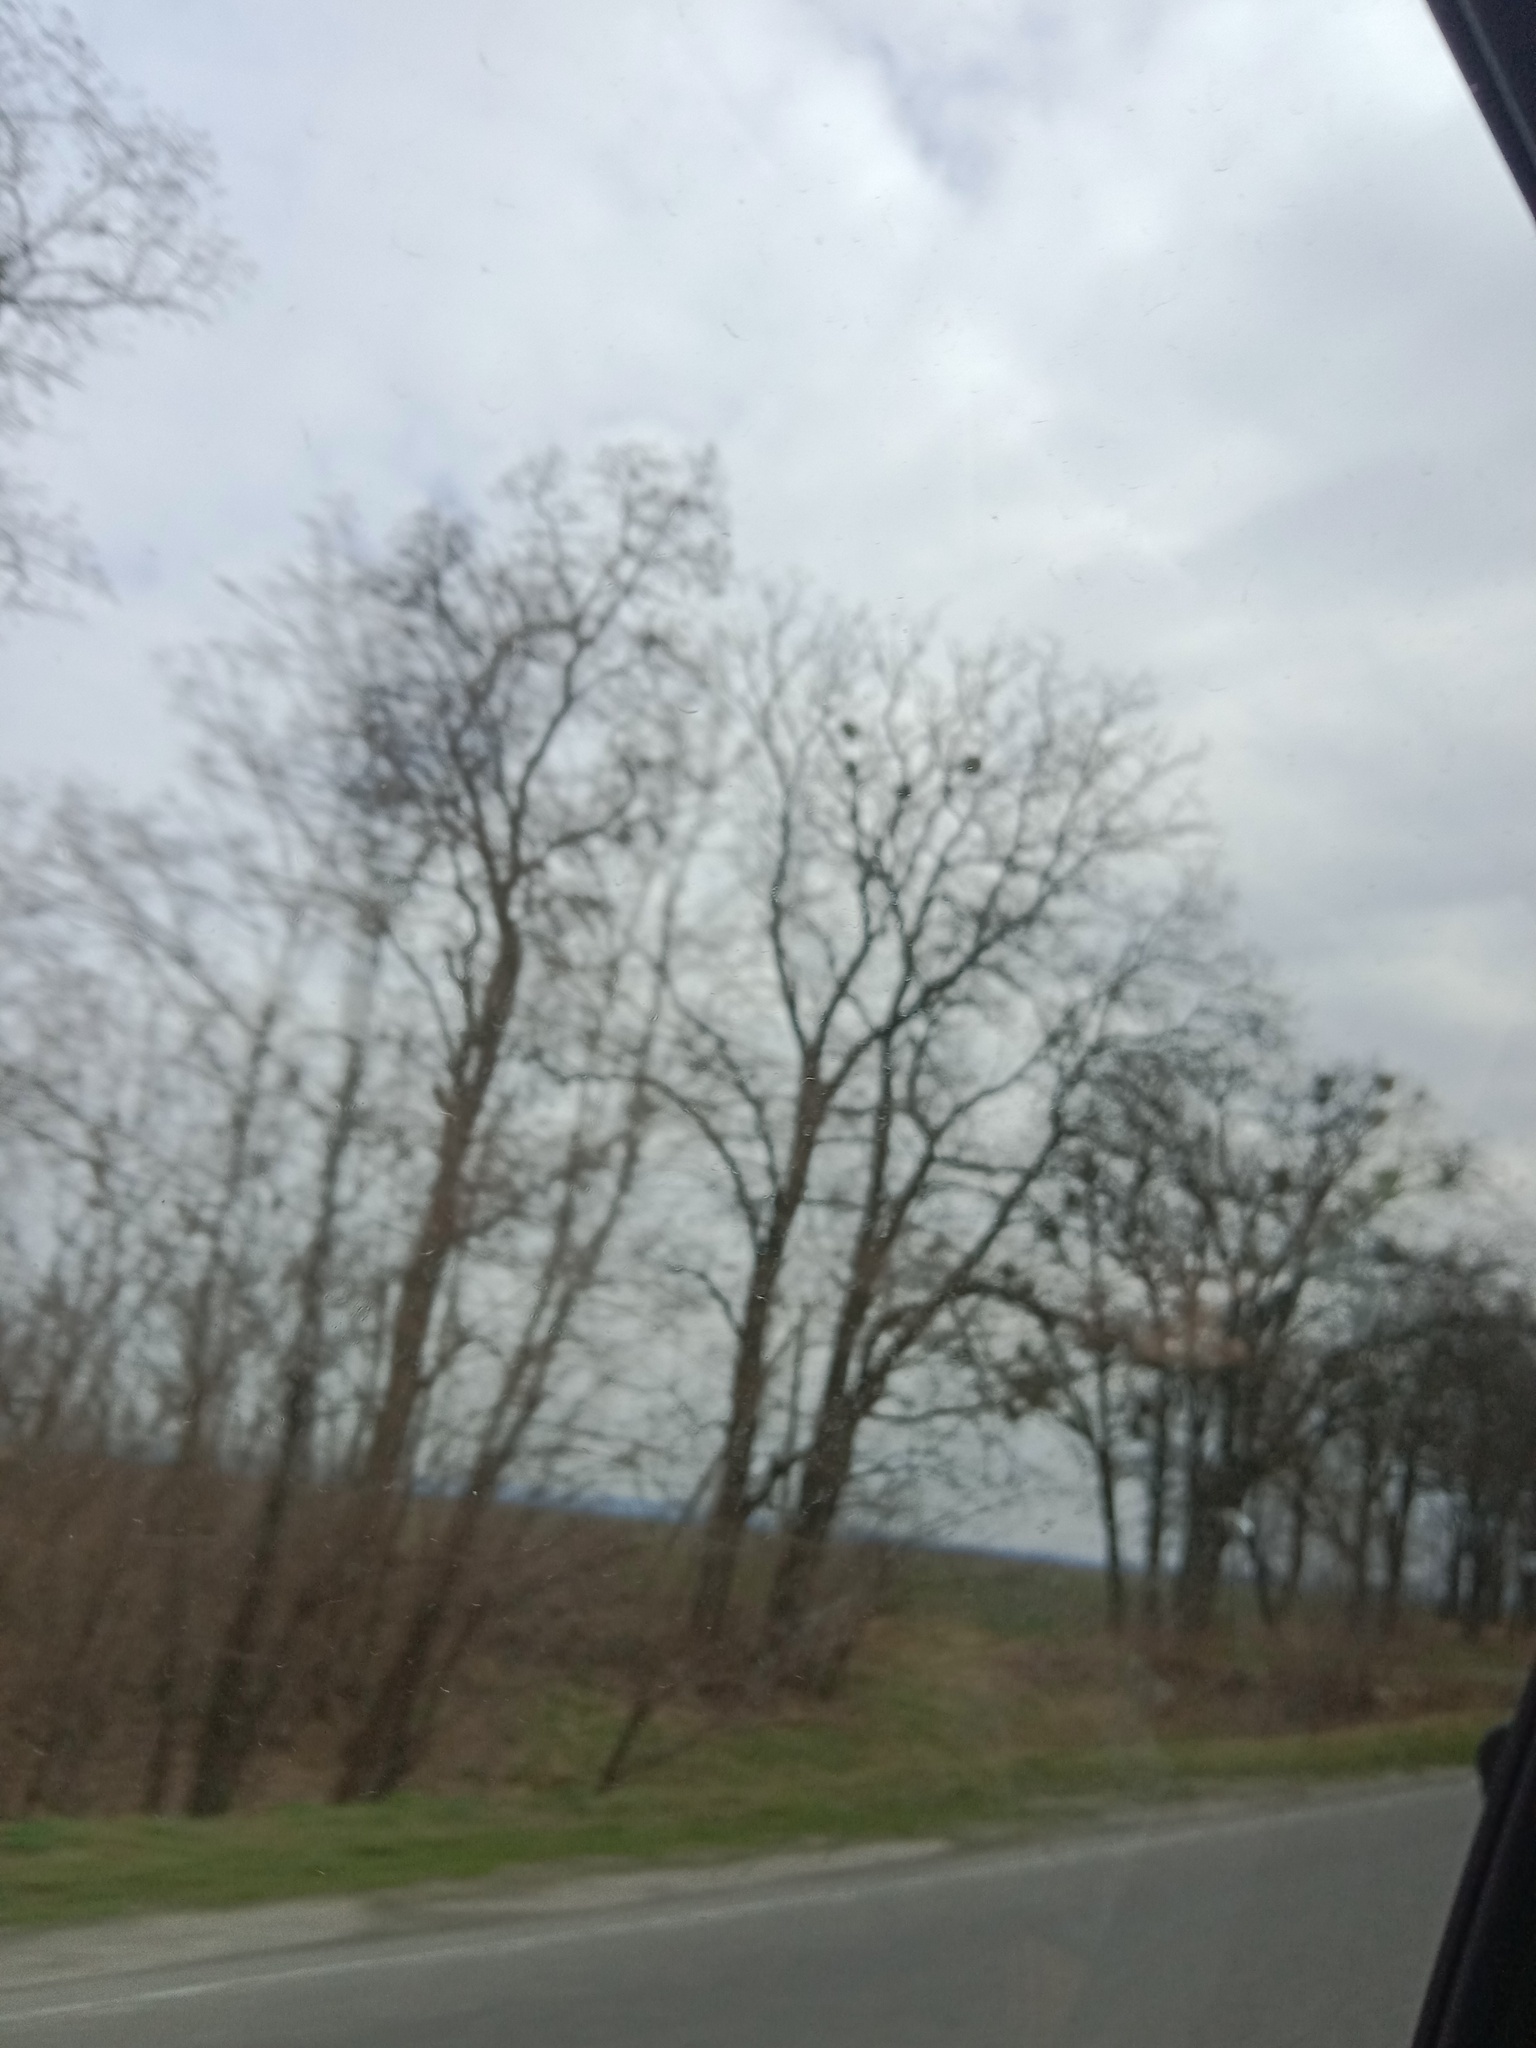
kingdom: Plantae
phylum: Tracheophyta
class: Magnoliopsida
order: Santalales
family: Viscaceae
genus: Viscum
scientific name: Viscum album
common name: Mistletoe
